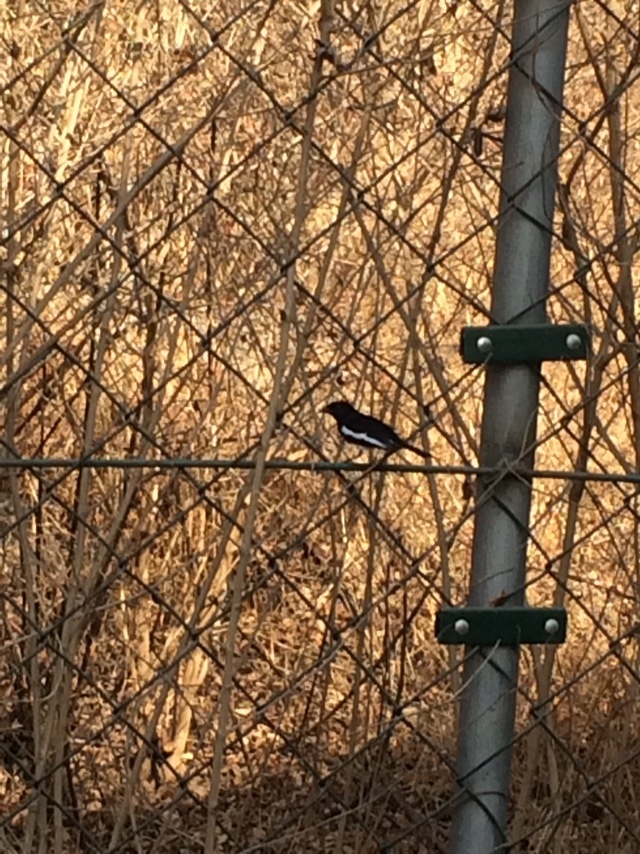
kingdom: Animalia
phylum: Chordata
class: Aves
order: Passeriformes
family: Muscicapidae
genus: Copsychus
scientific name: Copsychus saularis
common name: Oriental magpie-robin
